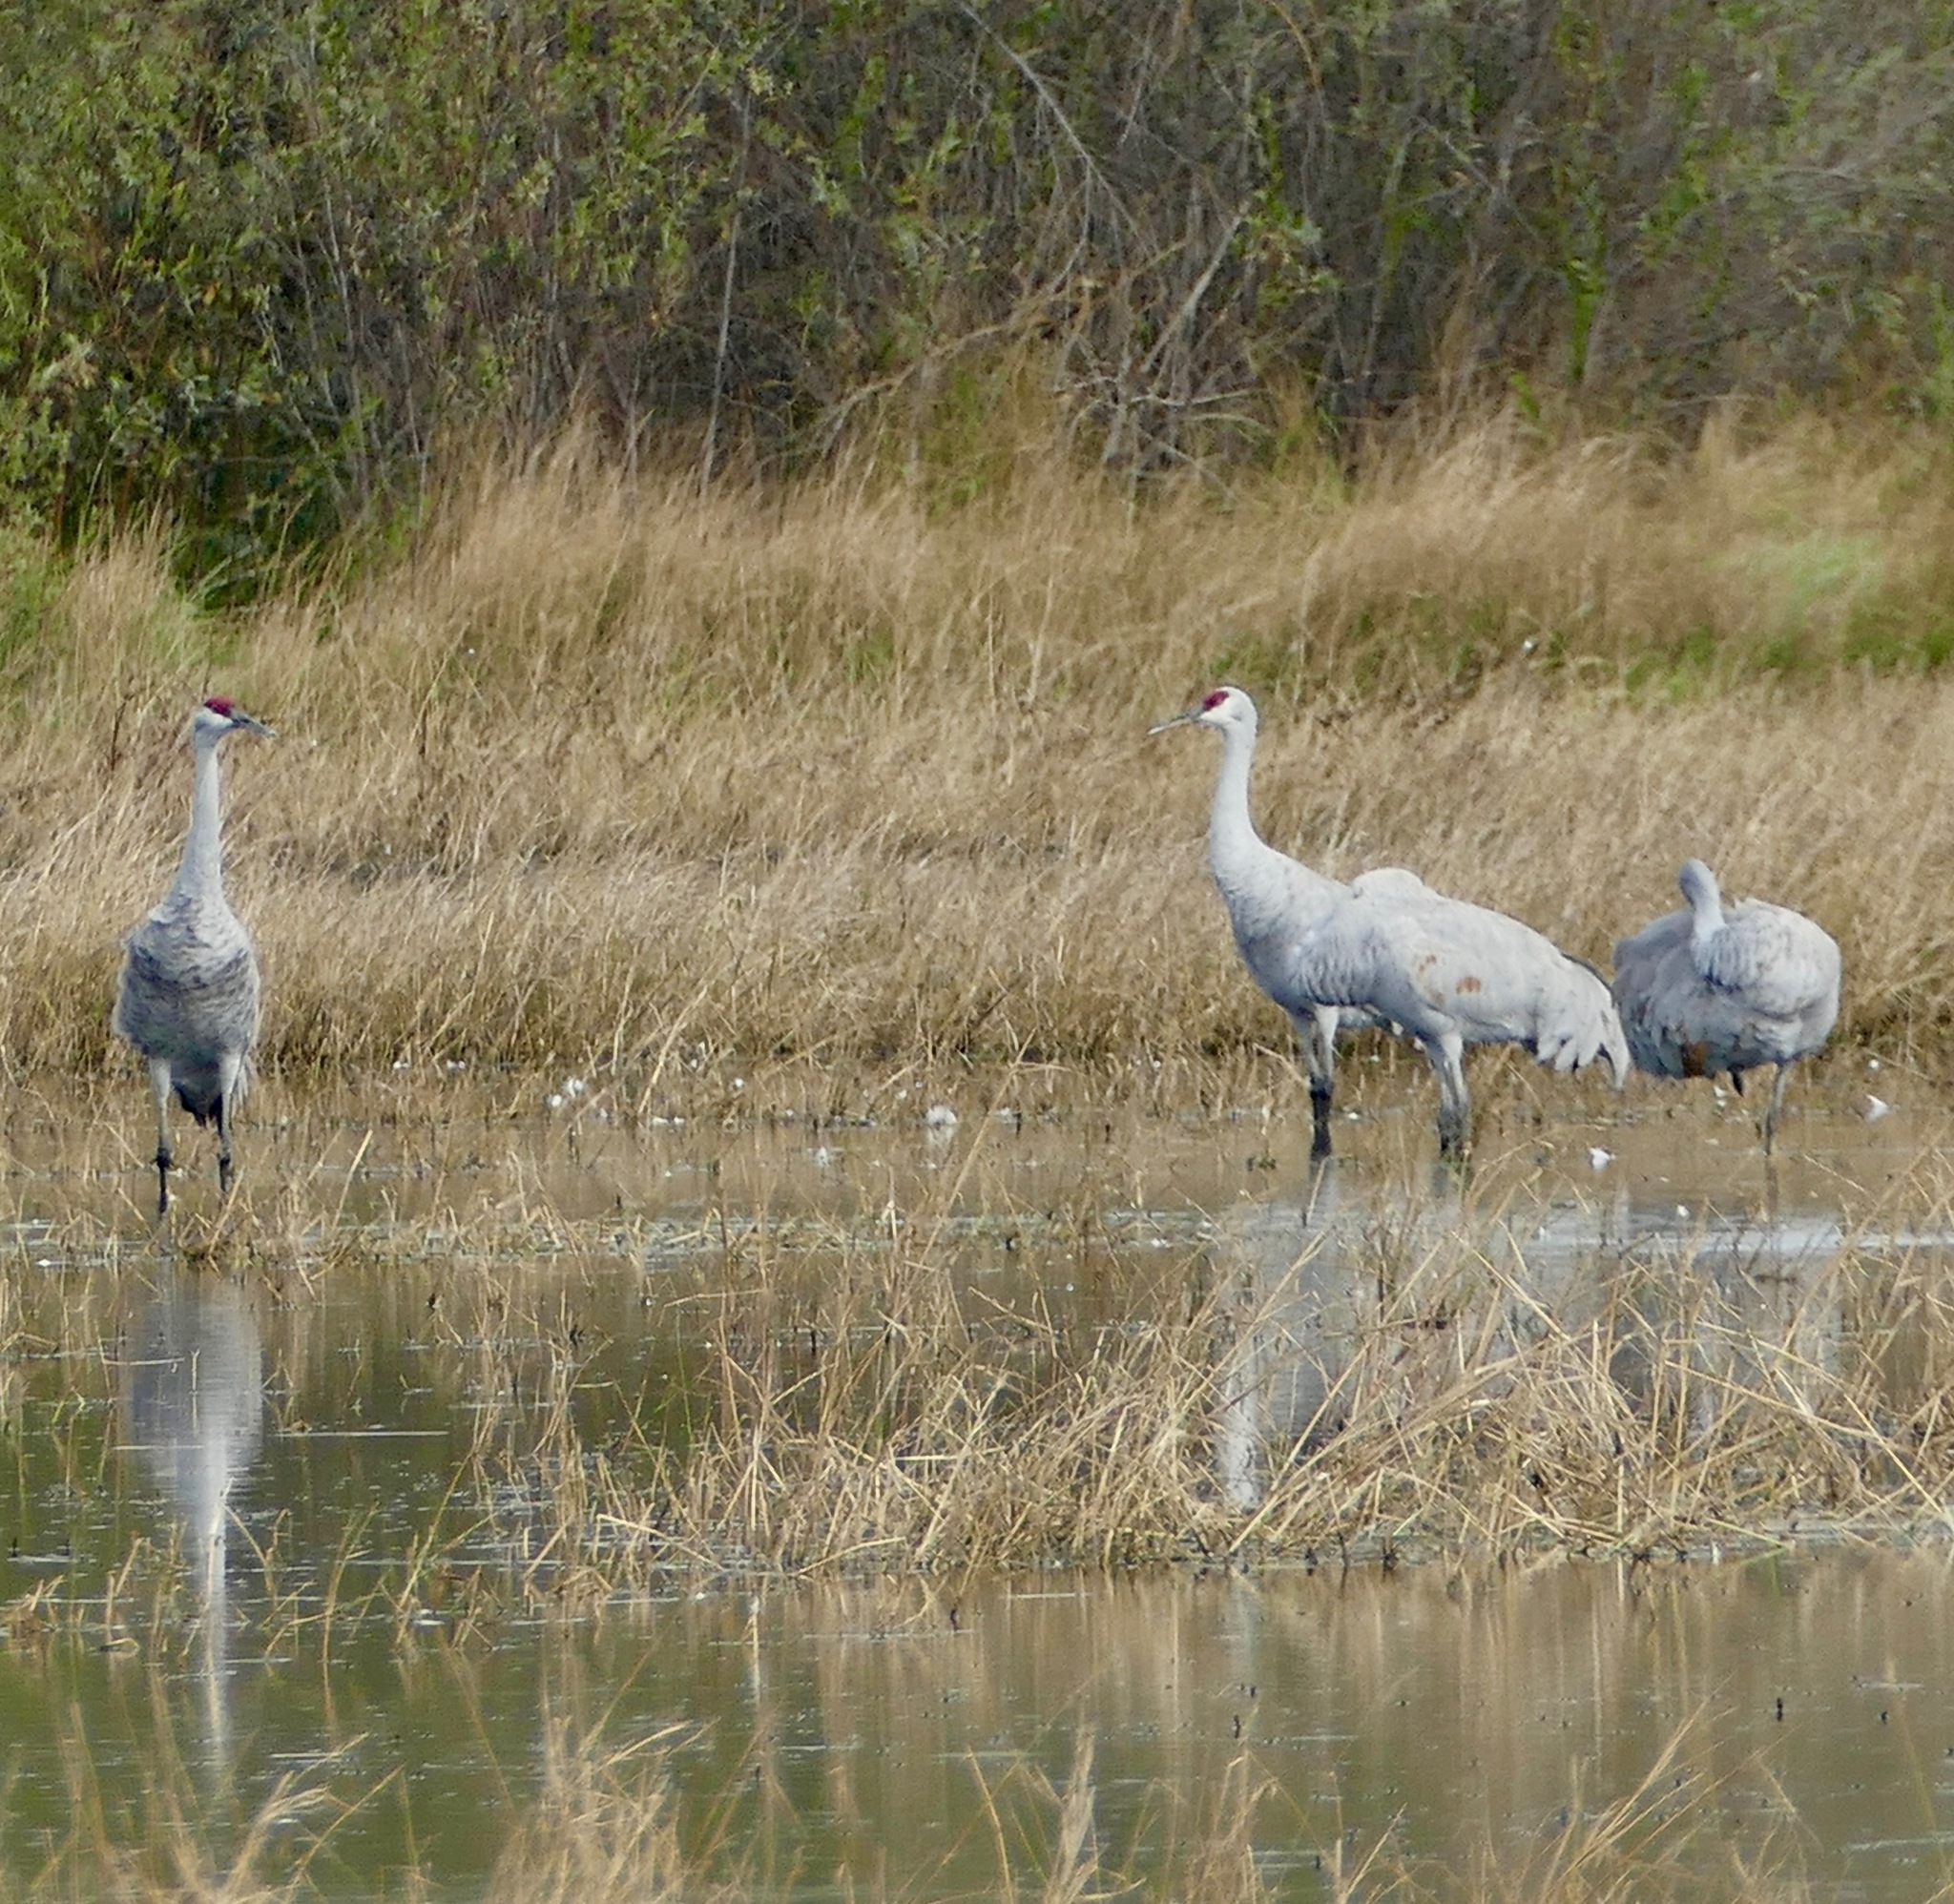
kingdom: Animalia
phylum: Chordata
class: Aves
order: Gruiformes
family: Gruidae
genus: Grus
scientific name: Grus canadensis
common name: Sandhill crane
